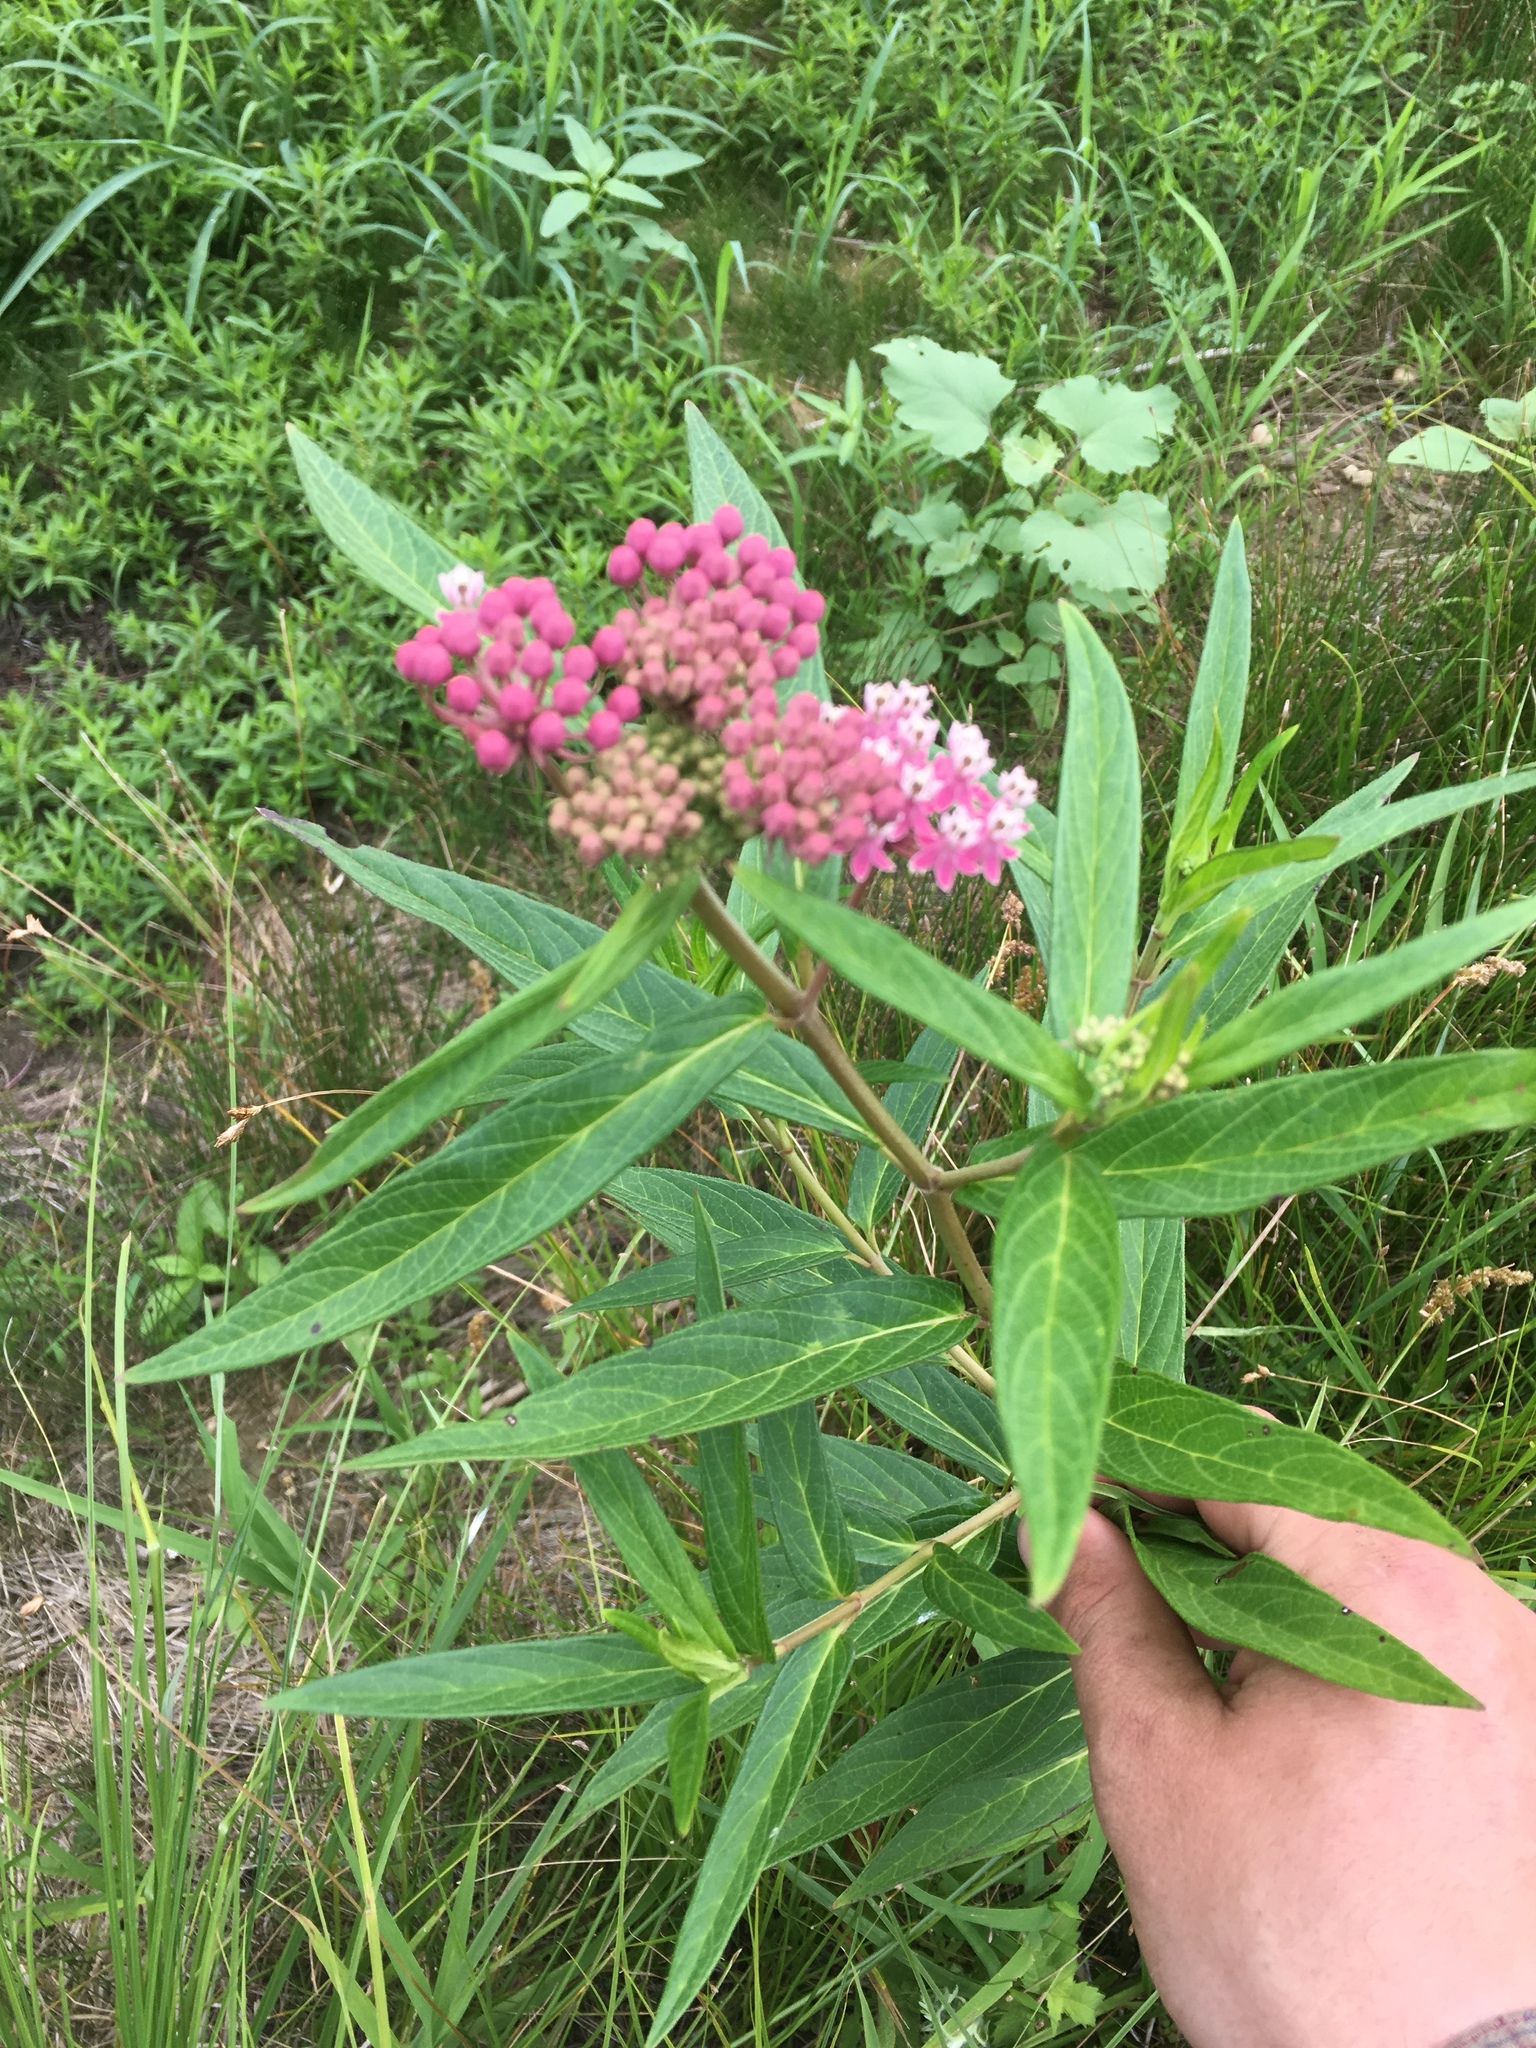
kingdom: Plantae
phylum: Tracheophyta
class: Magnoliopsida
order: Gentianales
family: Apocynaceae
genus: Asclepias
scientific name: Asclepias incarnata
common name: Swamp milkweed
